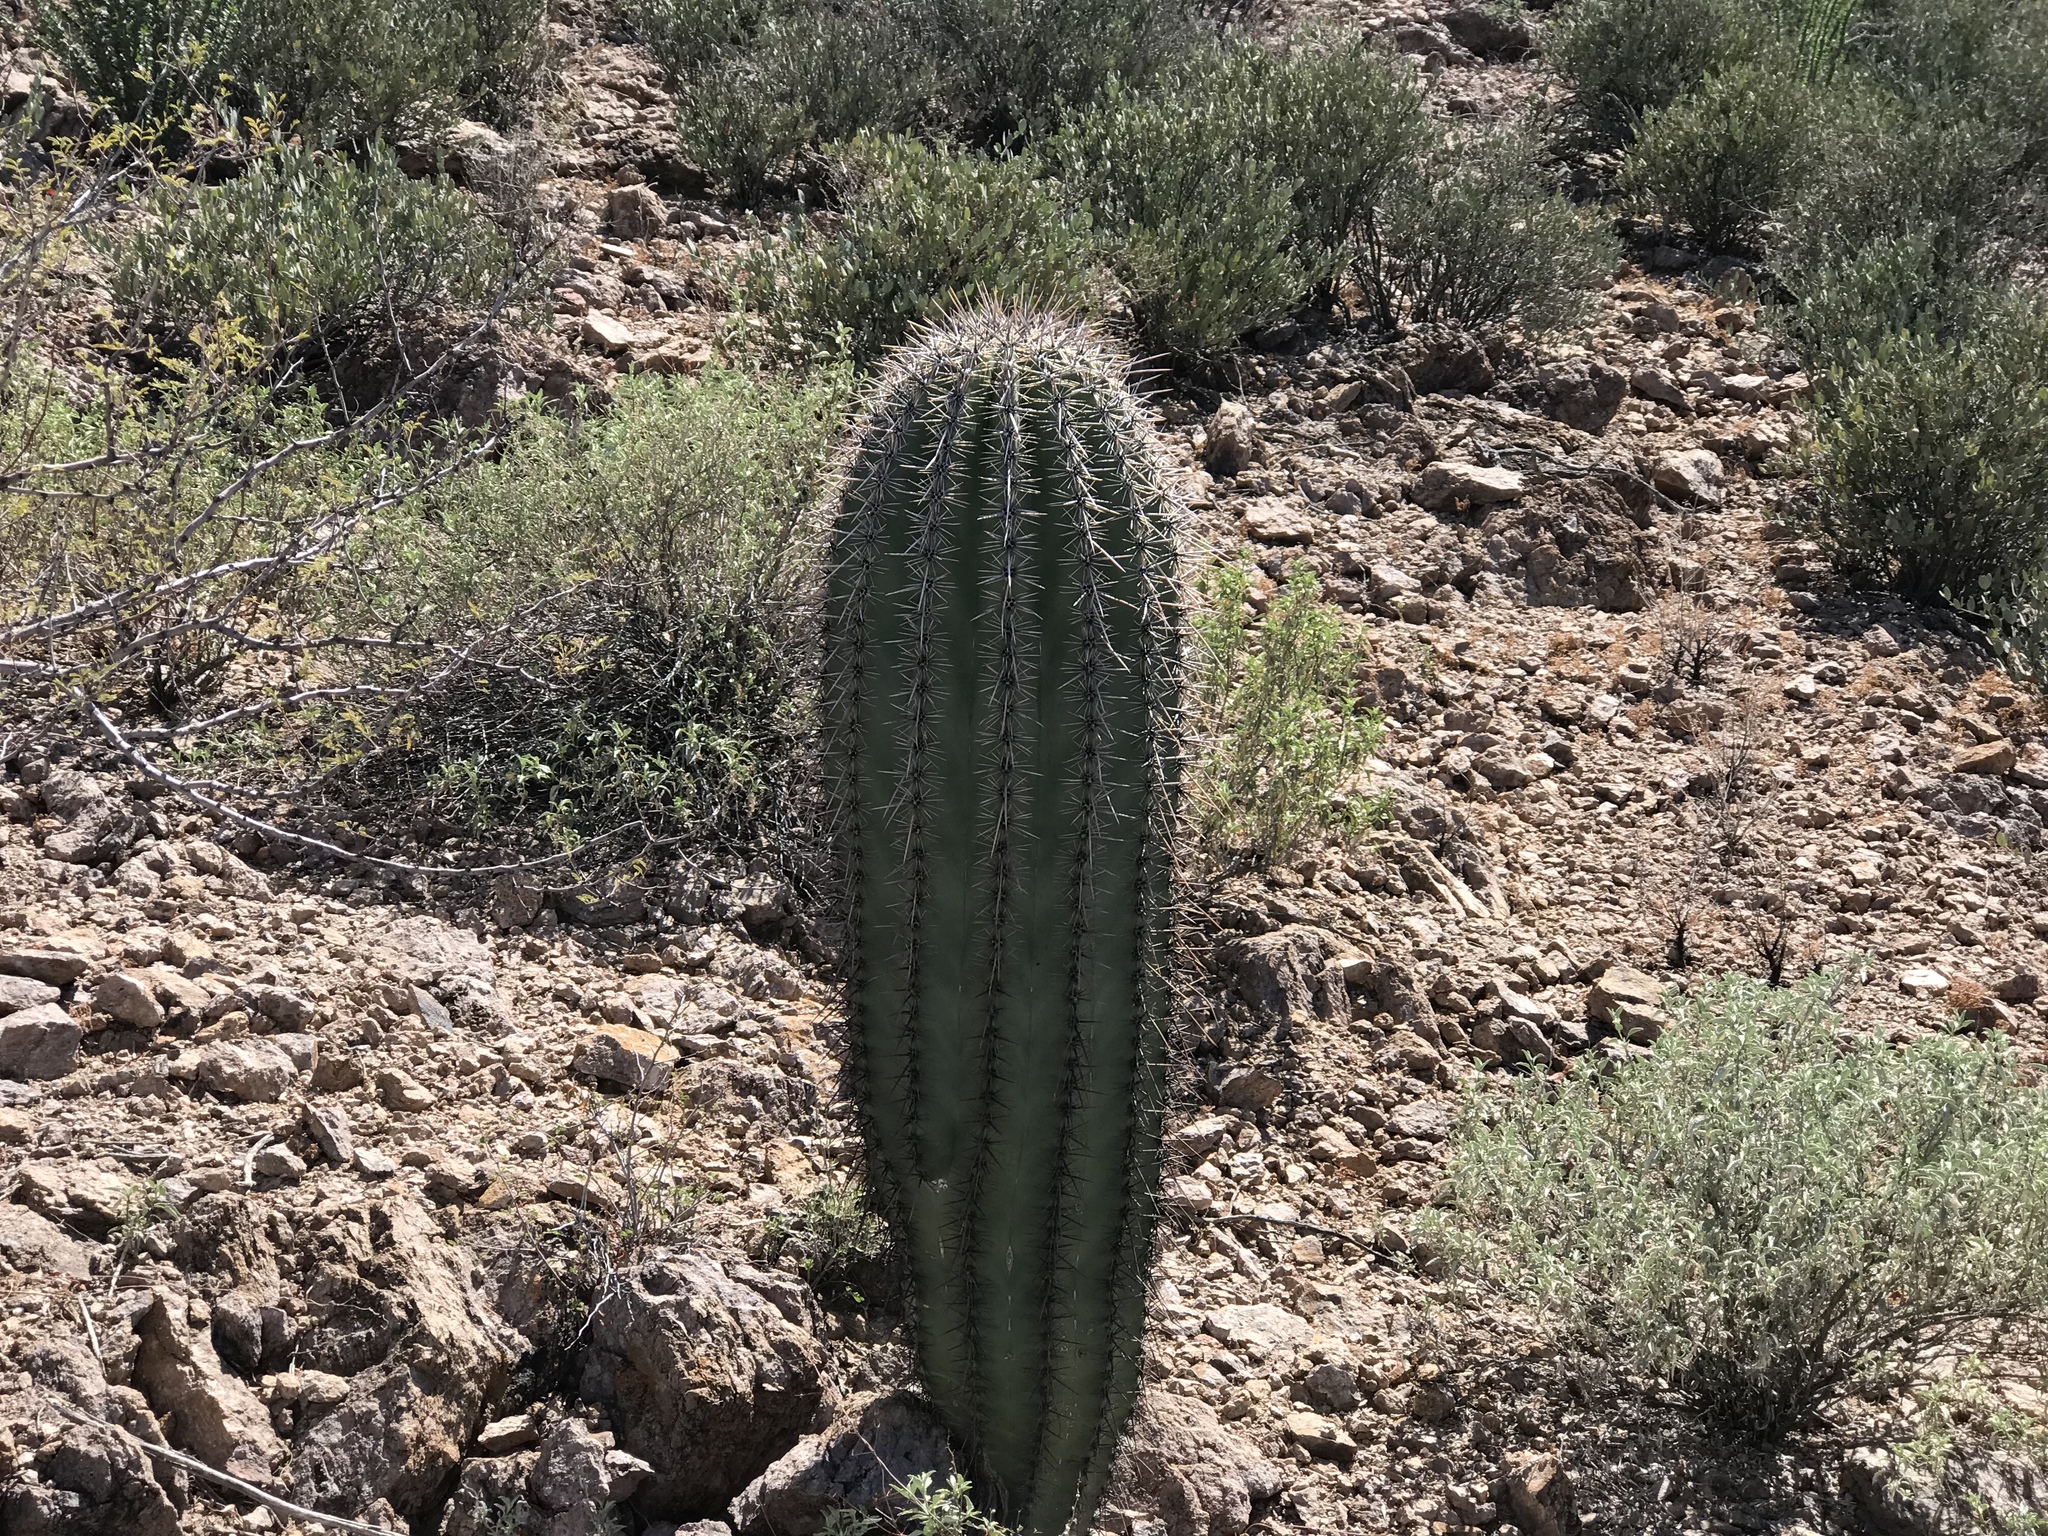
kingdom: Plantae
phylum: Tracheophyta
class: Magnoliopsida
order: Caryophyllales
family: Cactaceae
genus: Carnegiea
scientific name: Carnegiea gigantea
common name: Saguaro
